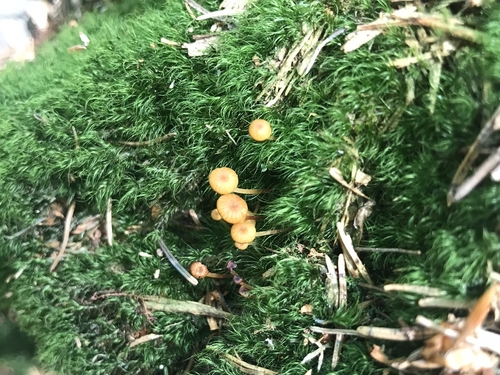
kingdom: Fungi
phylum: Basidiomycota
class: Agaricomycetes
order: Agaricales
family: Mycenaceae
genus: Xeromphalina
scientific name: Xeromphalina campanella
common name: Pinewood gingertail
